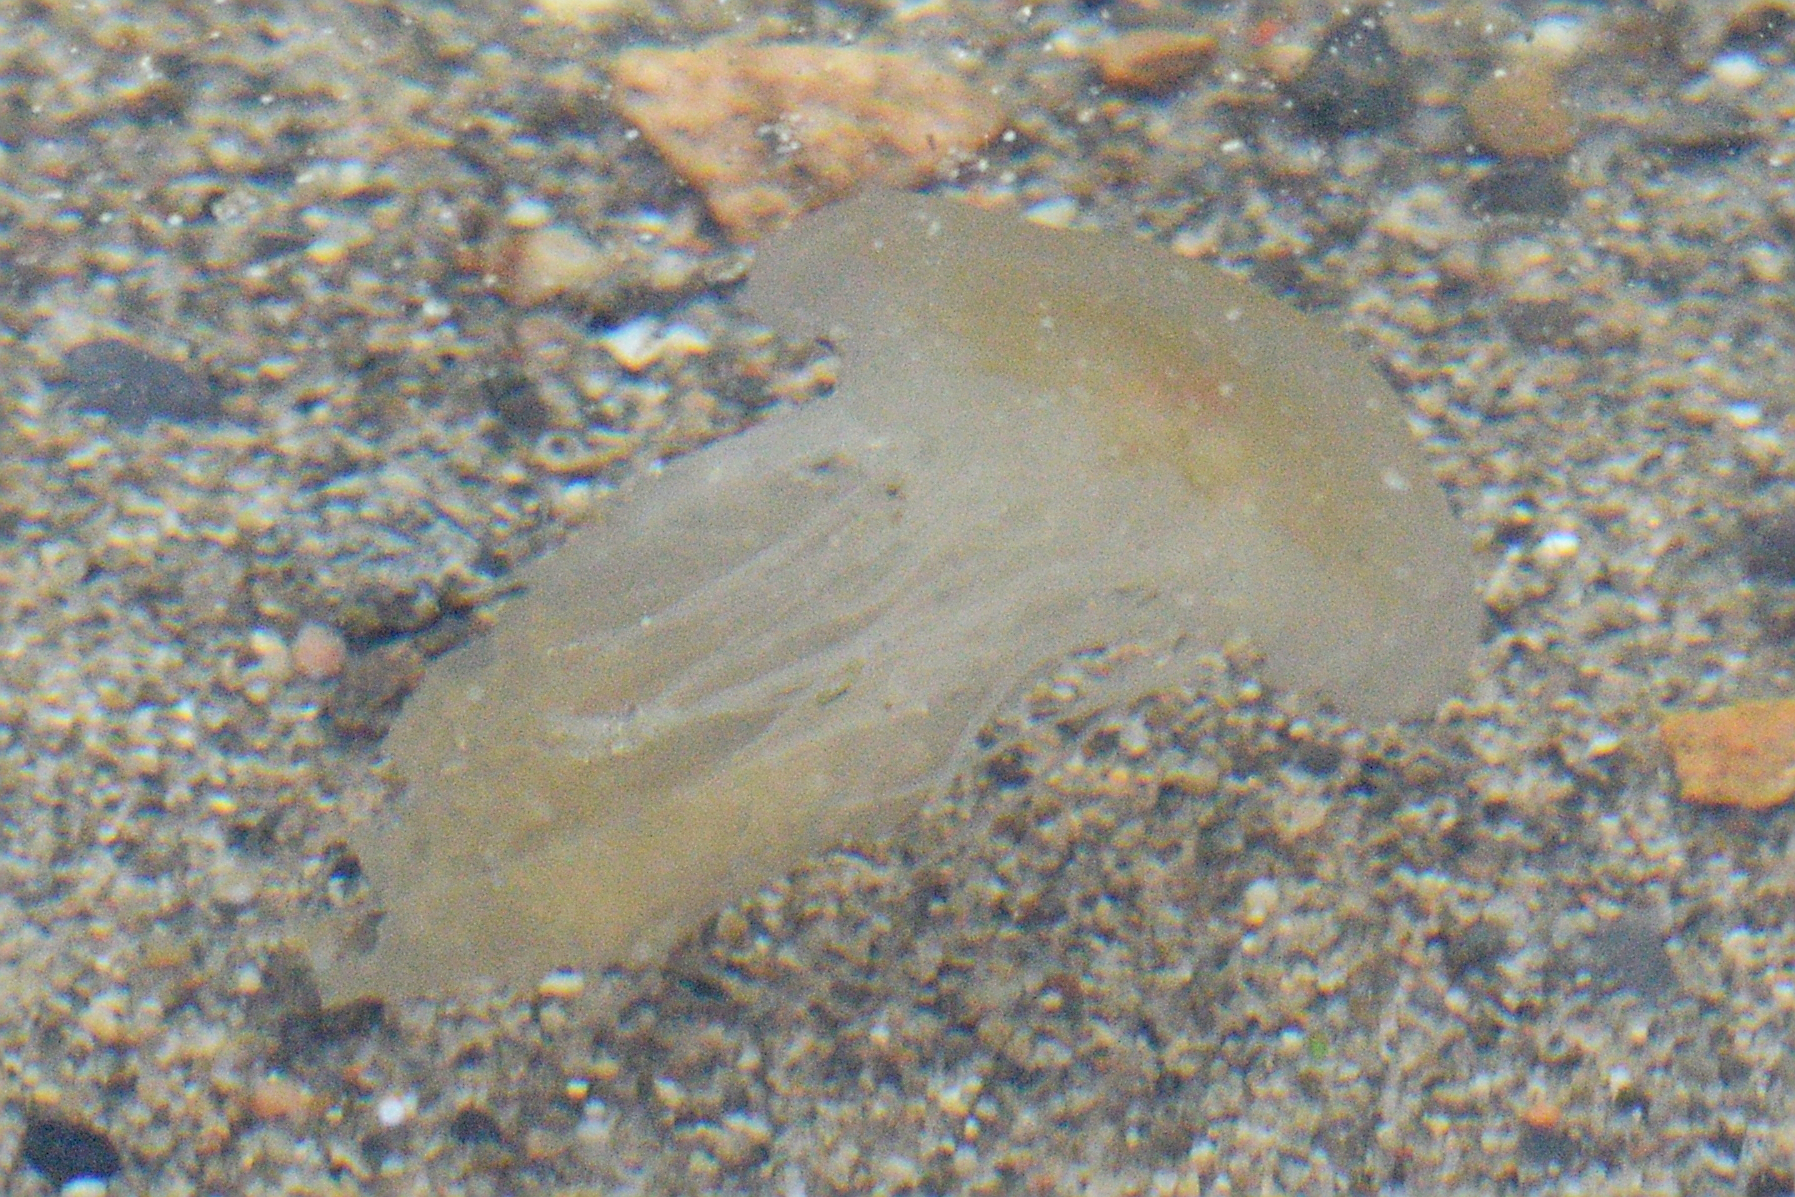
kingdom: Animalia
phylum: Cnidaria
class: Scyphozoa
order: Semaeostomeae
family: Cyaneidae
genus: Cyanea
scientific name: Cyanea capillata
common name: Lion's mane jellyfish
